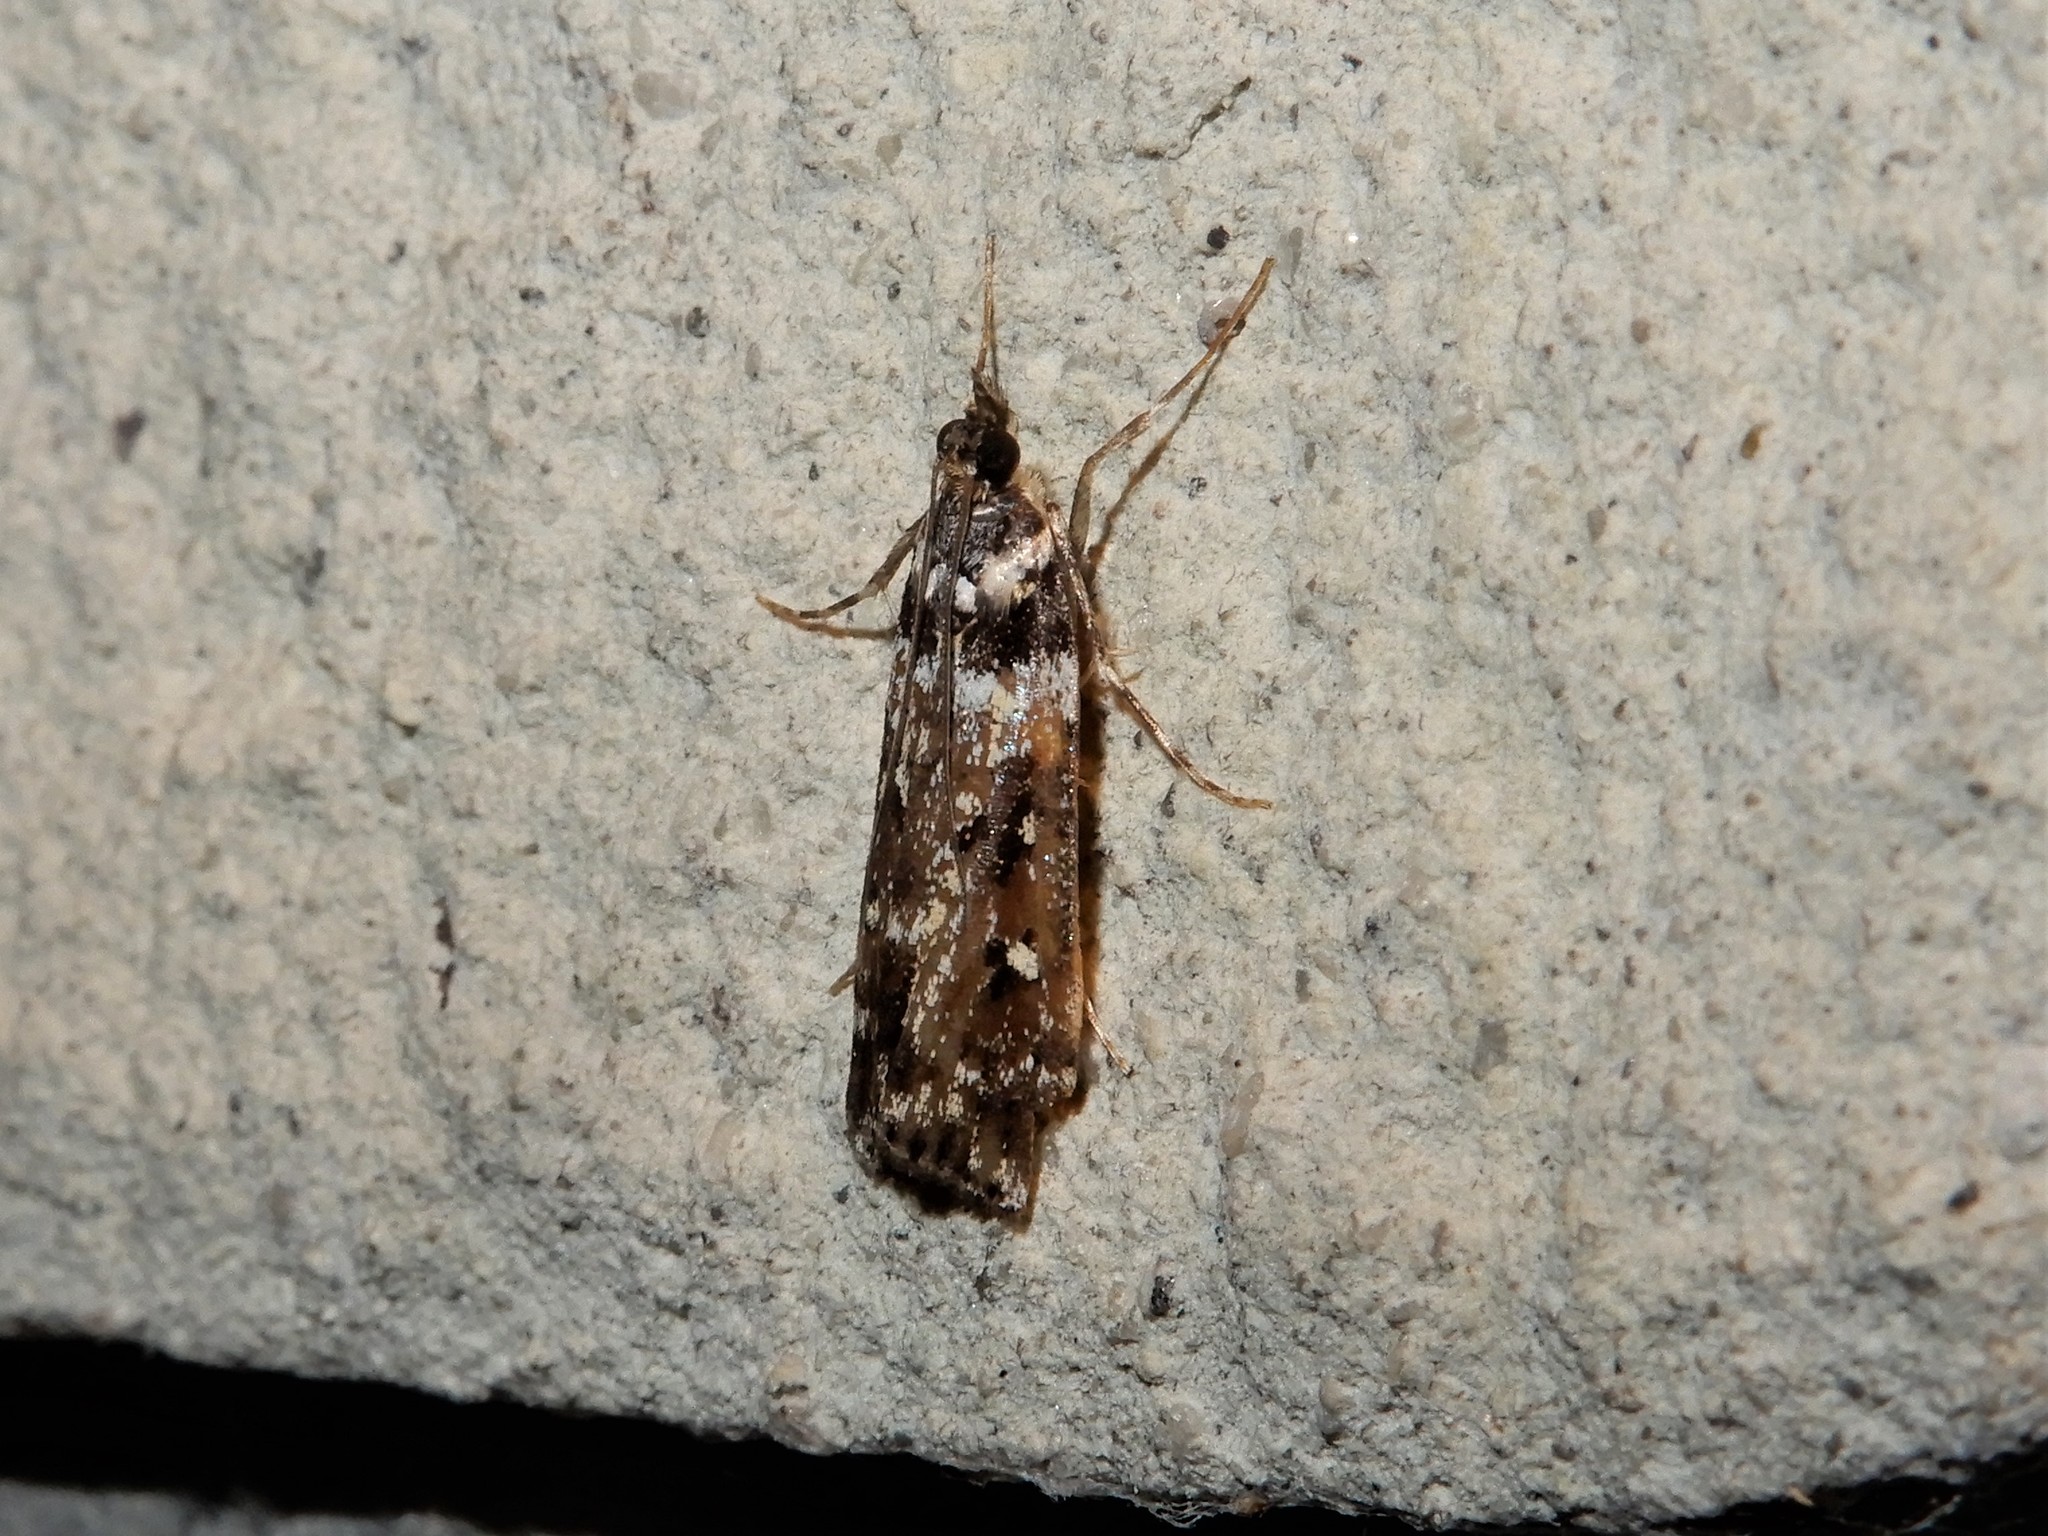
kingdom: Animalia
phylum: Arthropoda
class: Insecta
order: Lepidoptera
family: Crambidae
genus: Eudonia
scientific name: Eudonia diphtheralis
